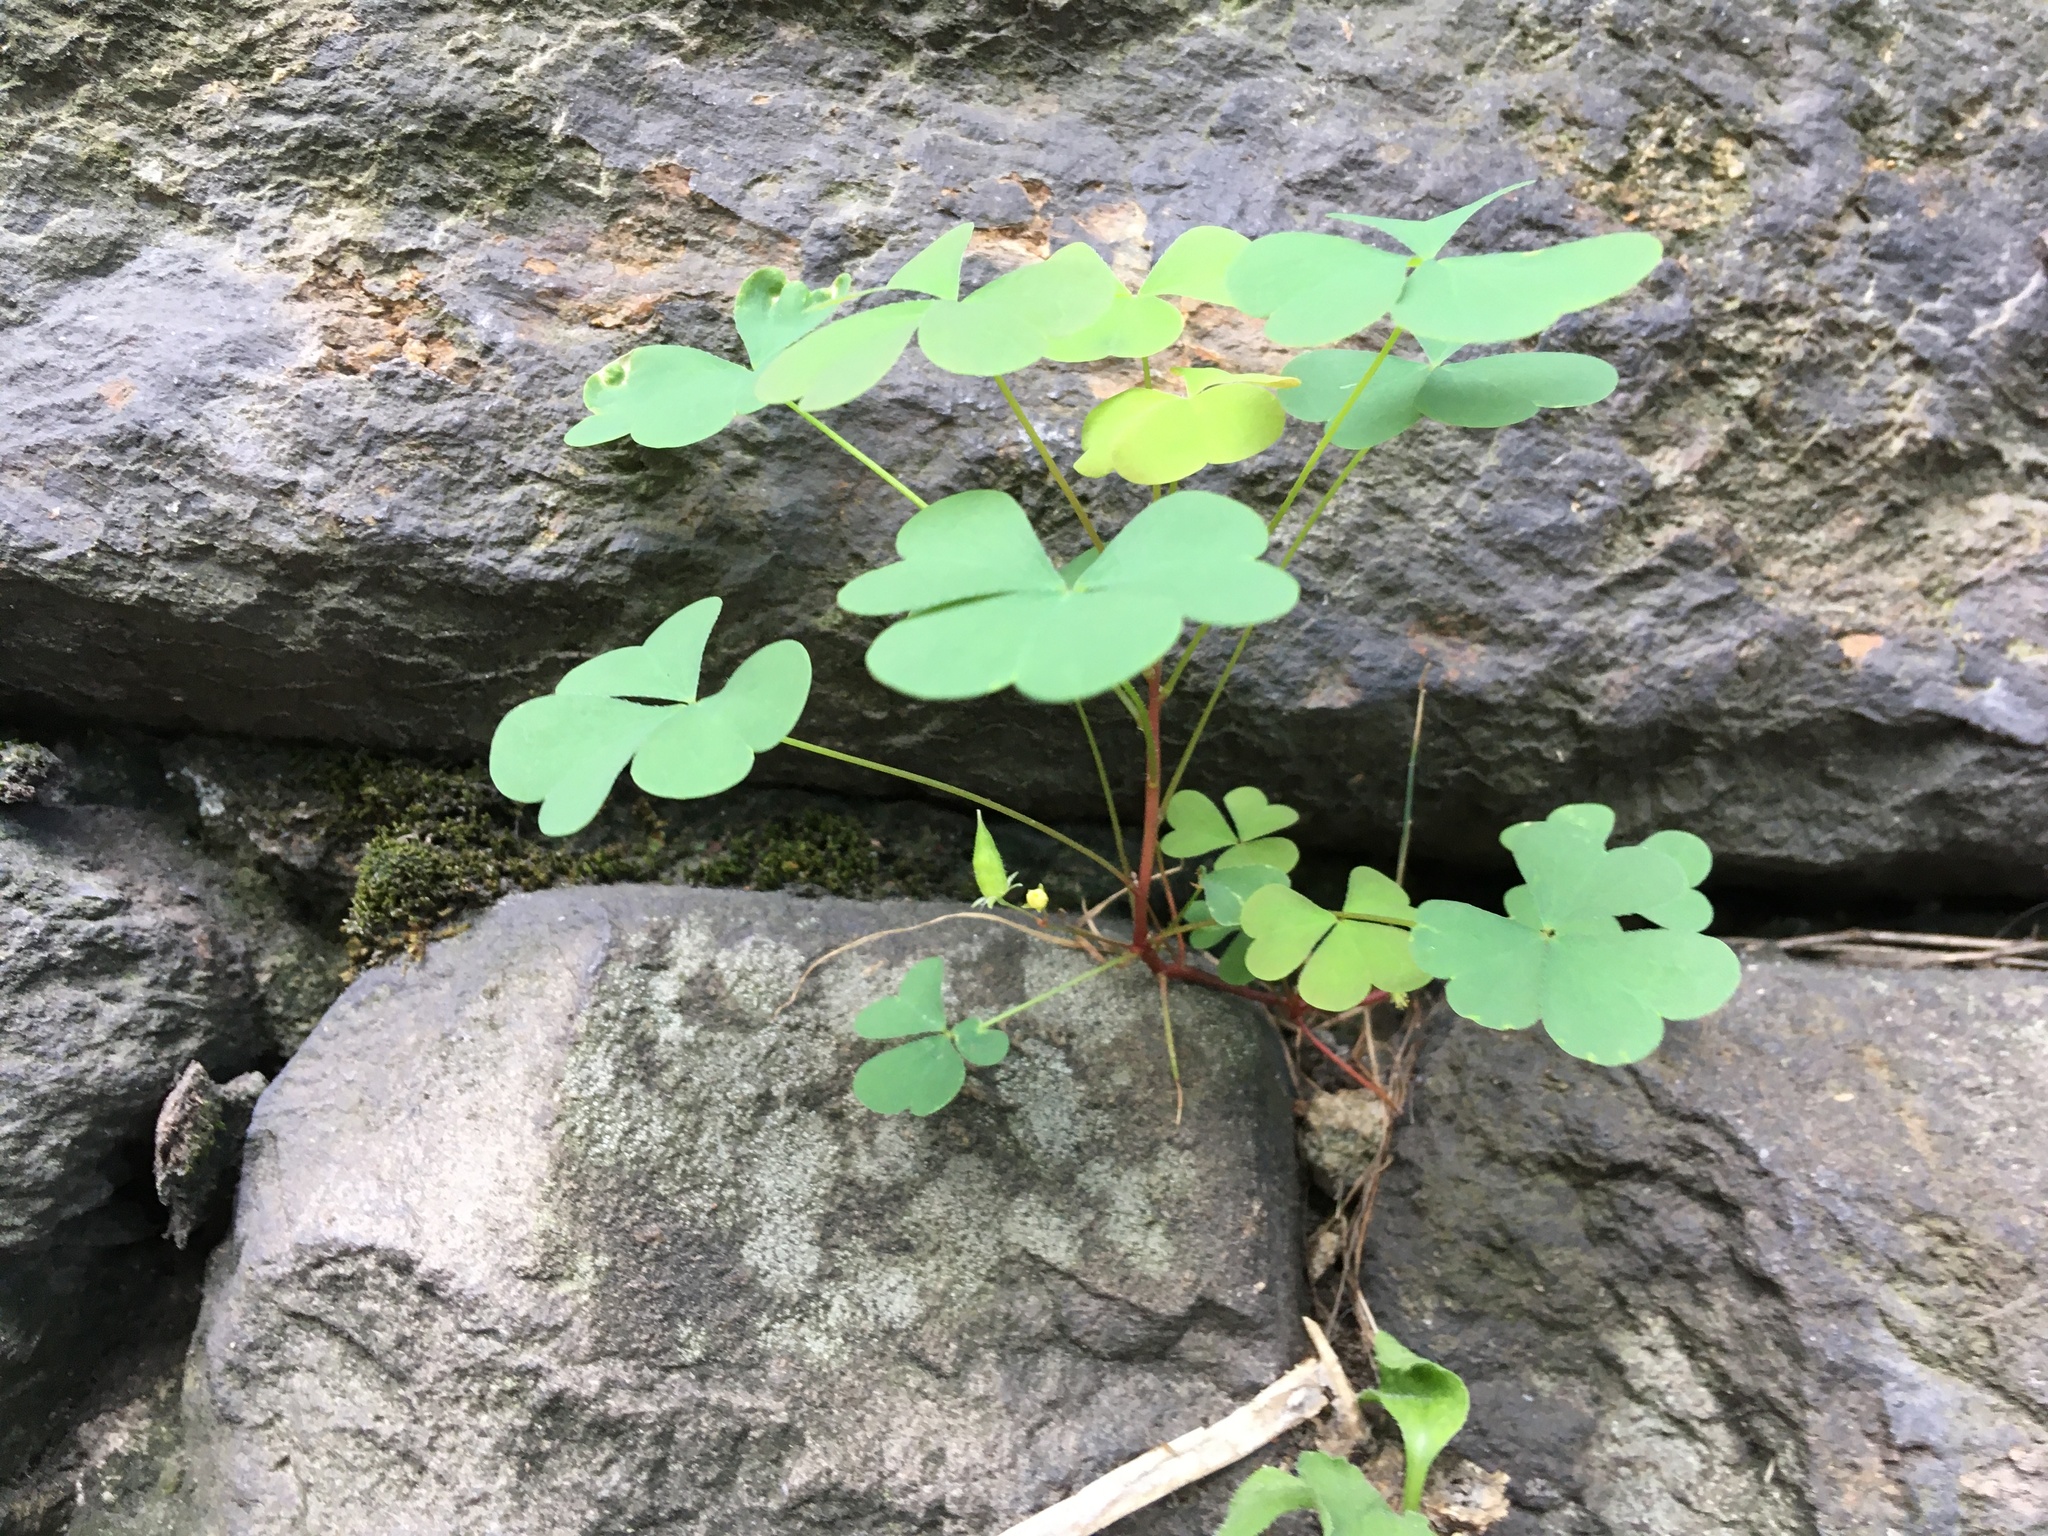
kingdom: Plantae
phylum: Tracheophyta
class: Magnoliopsida
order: Oxalidales
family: Oxalidaceae
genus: Oxalis
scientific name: Oxalis corniculata
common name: Procumbent yellow-sorrel
